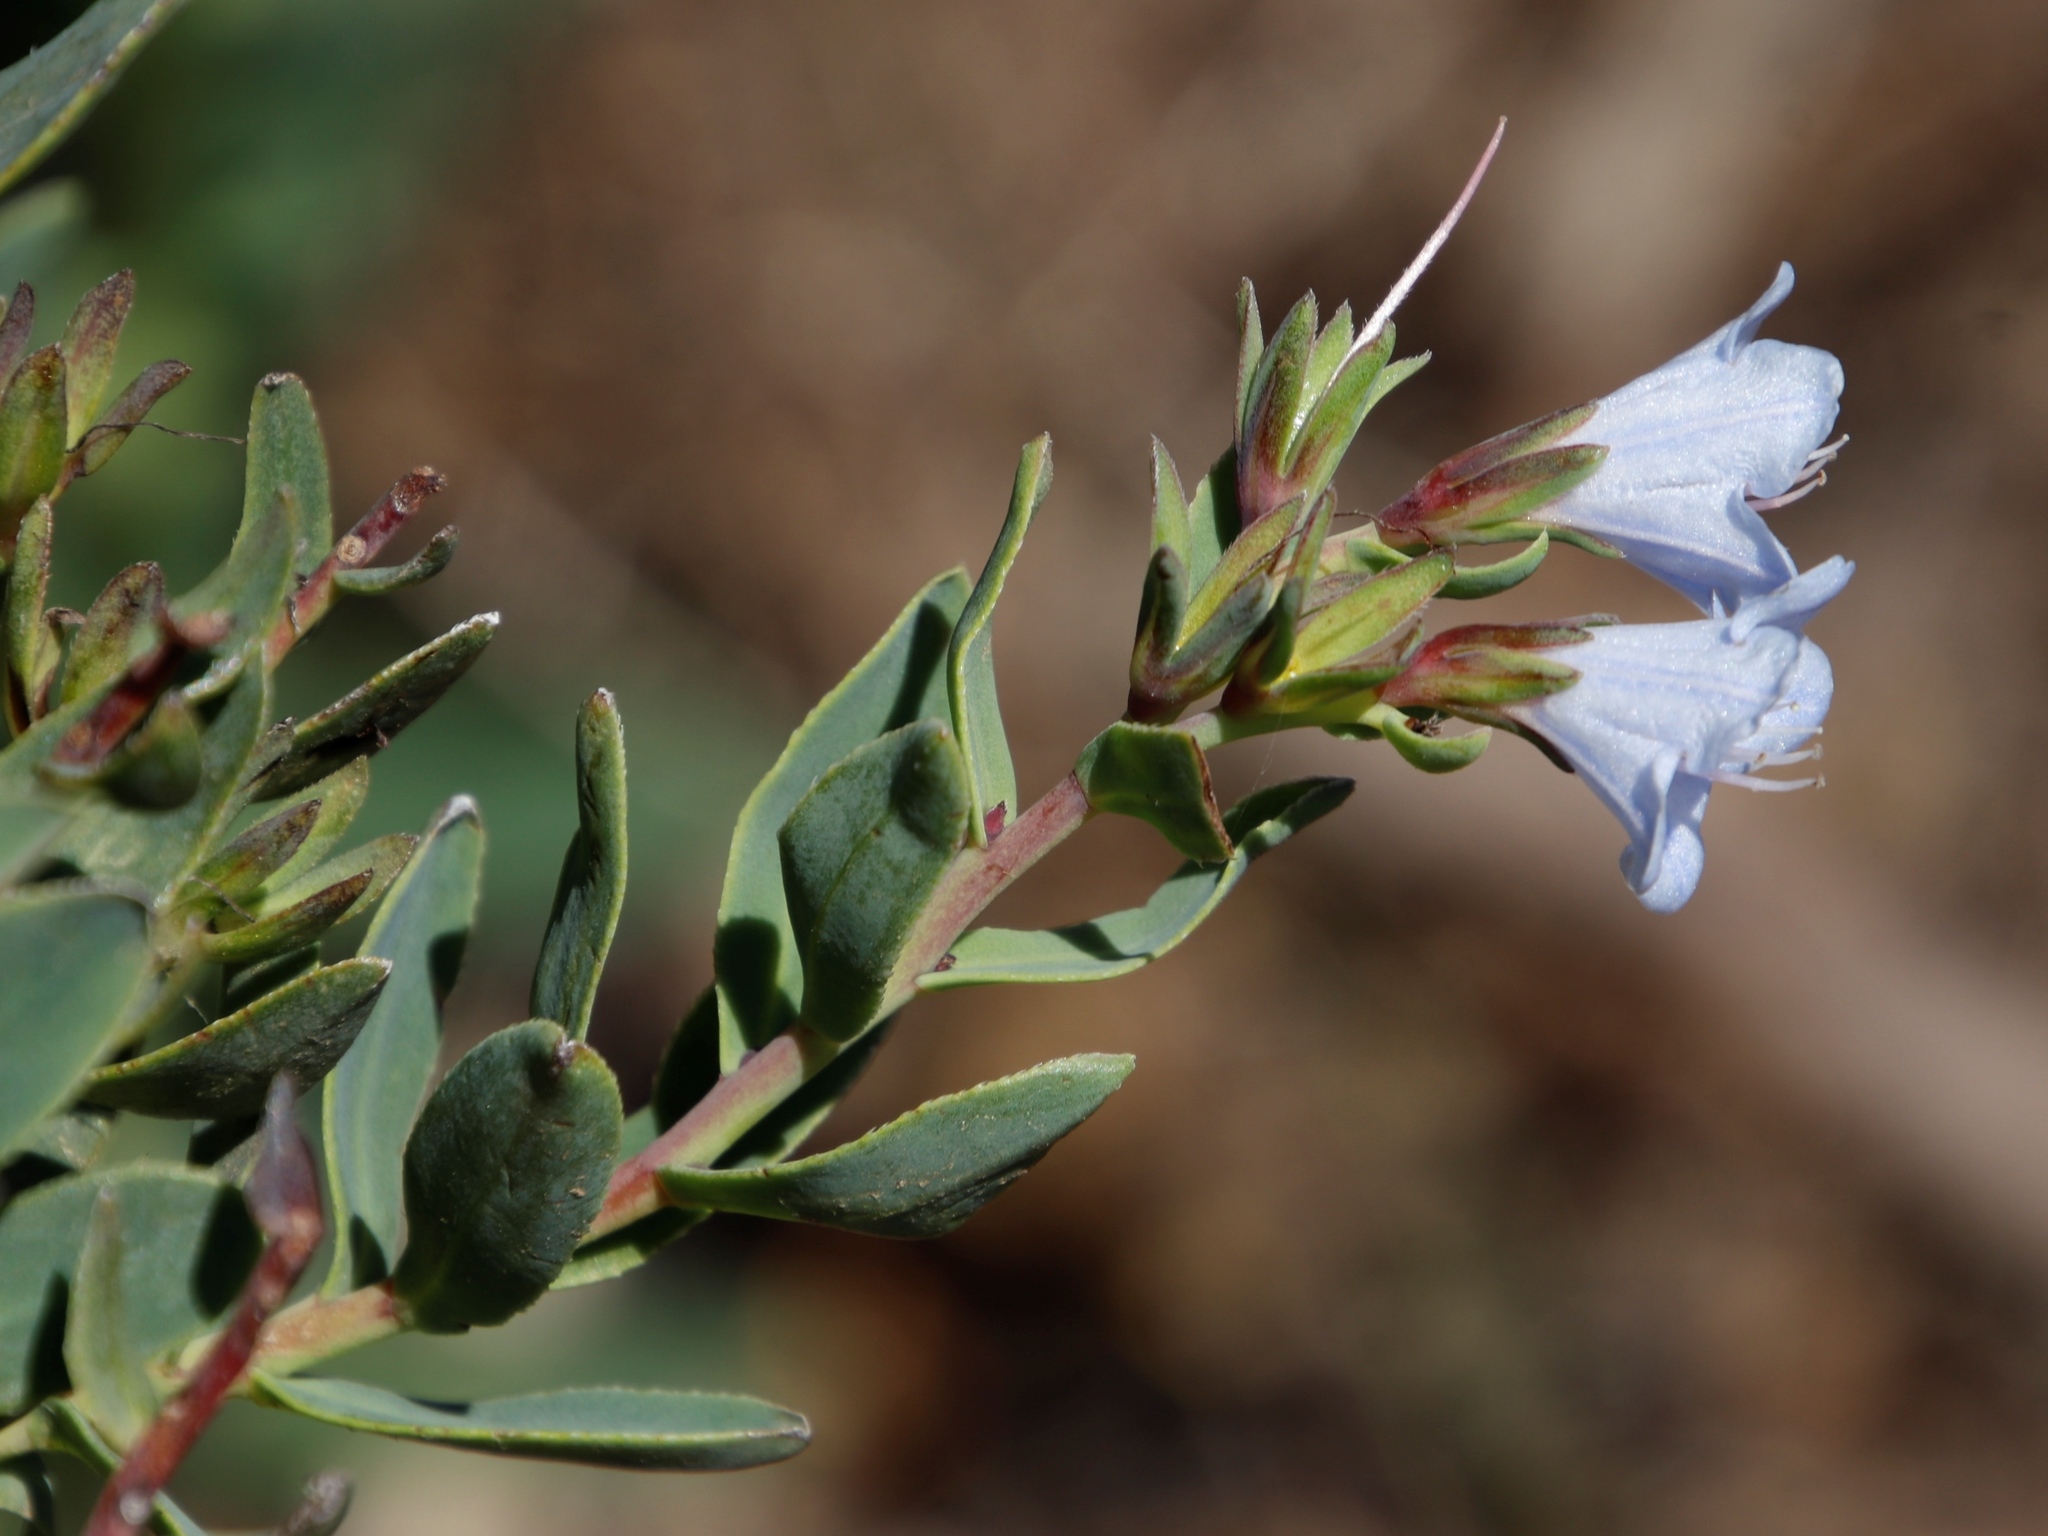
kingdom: Plantae
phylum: Tracheophyta
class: Magnoliopsida
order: Boraginales
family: Boraginaceae
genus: Lobostemon
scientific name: Lobostemon glaucophyllus
